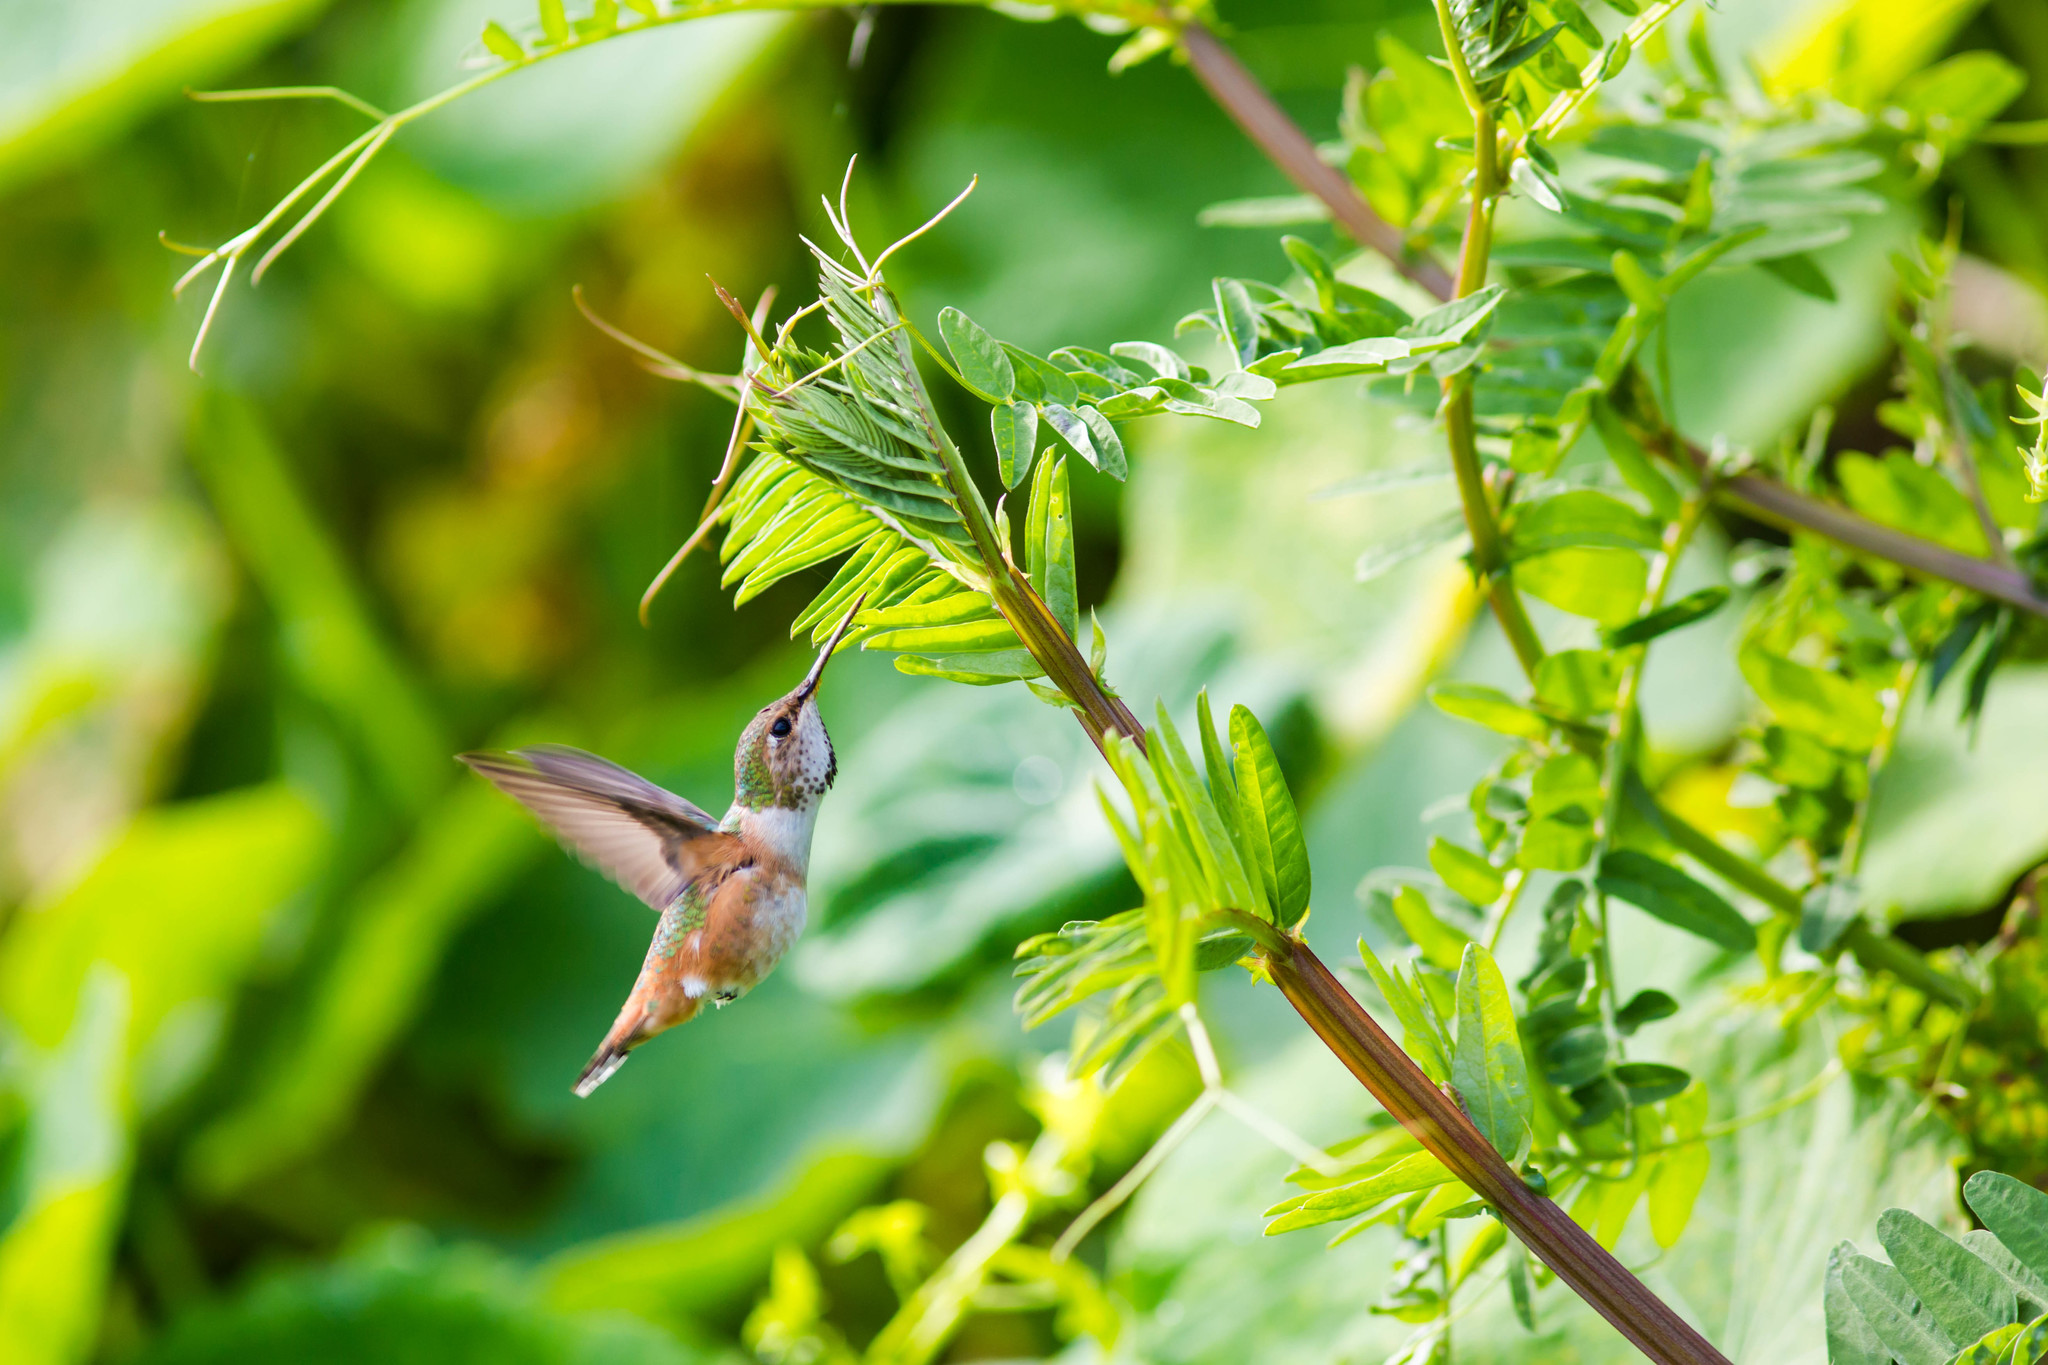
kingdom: Animalia
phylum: Chordata
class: Aves
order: Apodiformes
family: Trochilidae
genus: Selasphorus
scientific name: Selasphorus
